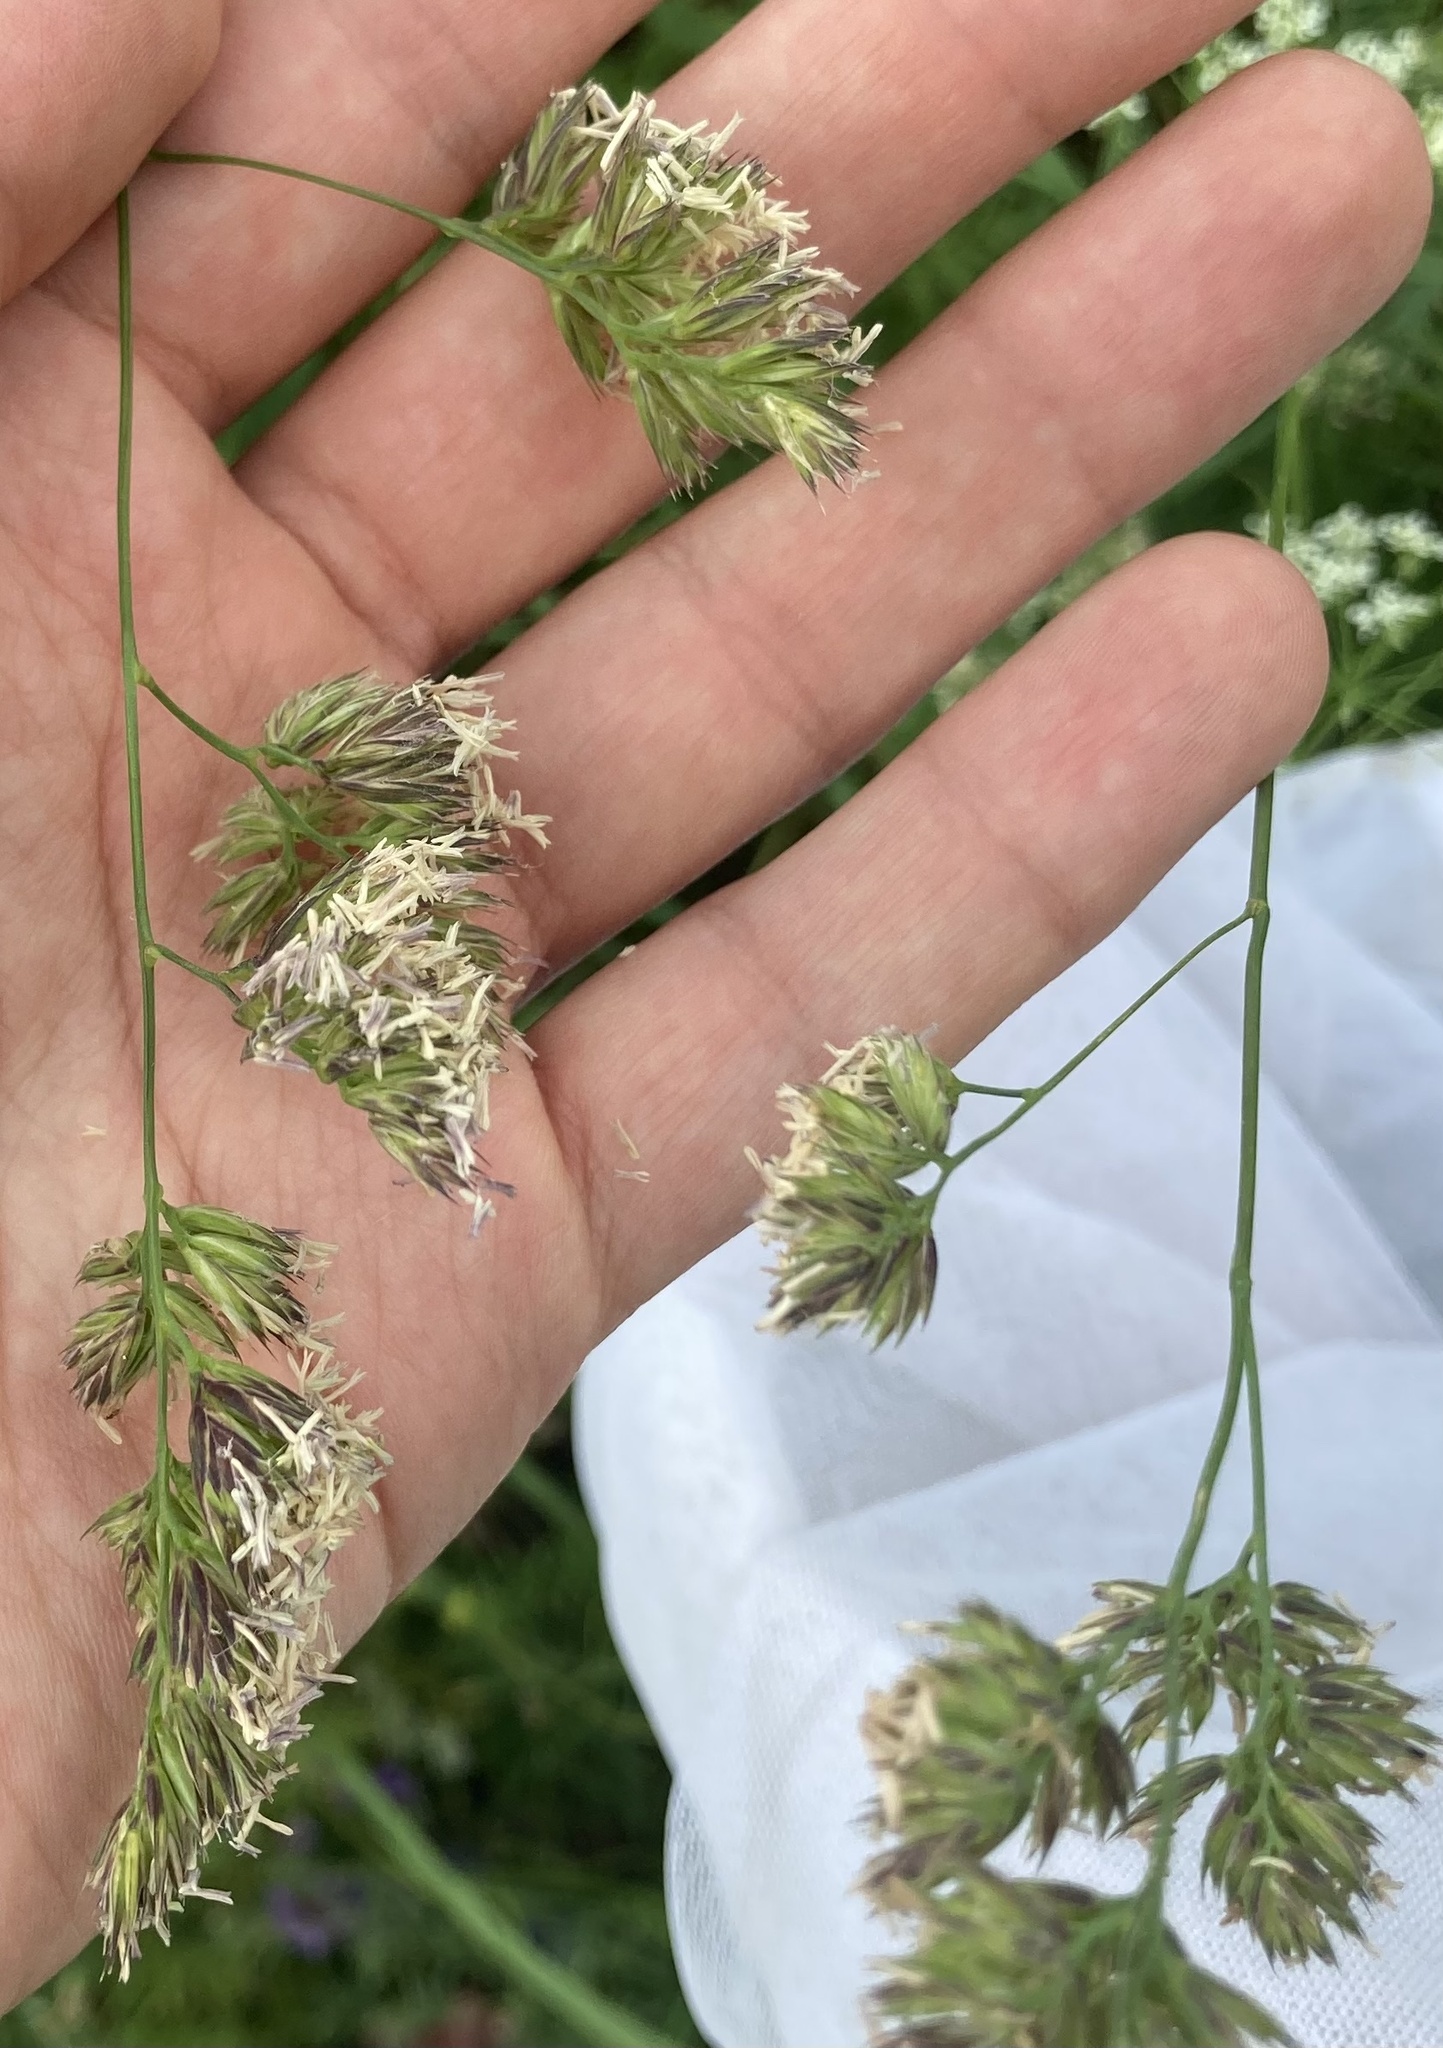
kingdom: Plantae
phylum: Tracheophyta
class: Liliopsida
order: Poales
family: Poaceae
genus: Dactylis
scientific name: Dactylis glomerata
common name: Orchardgrass
